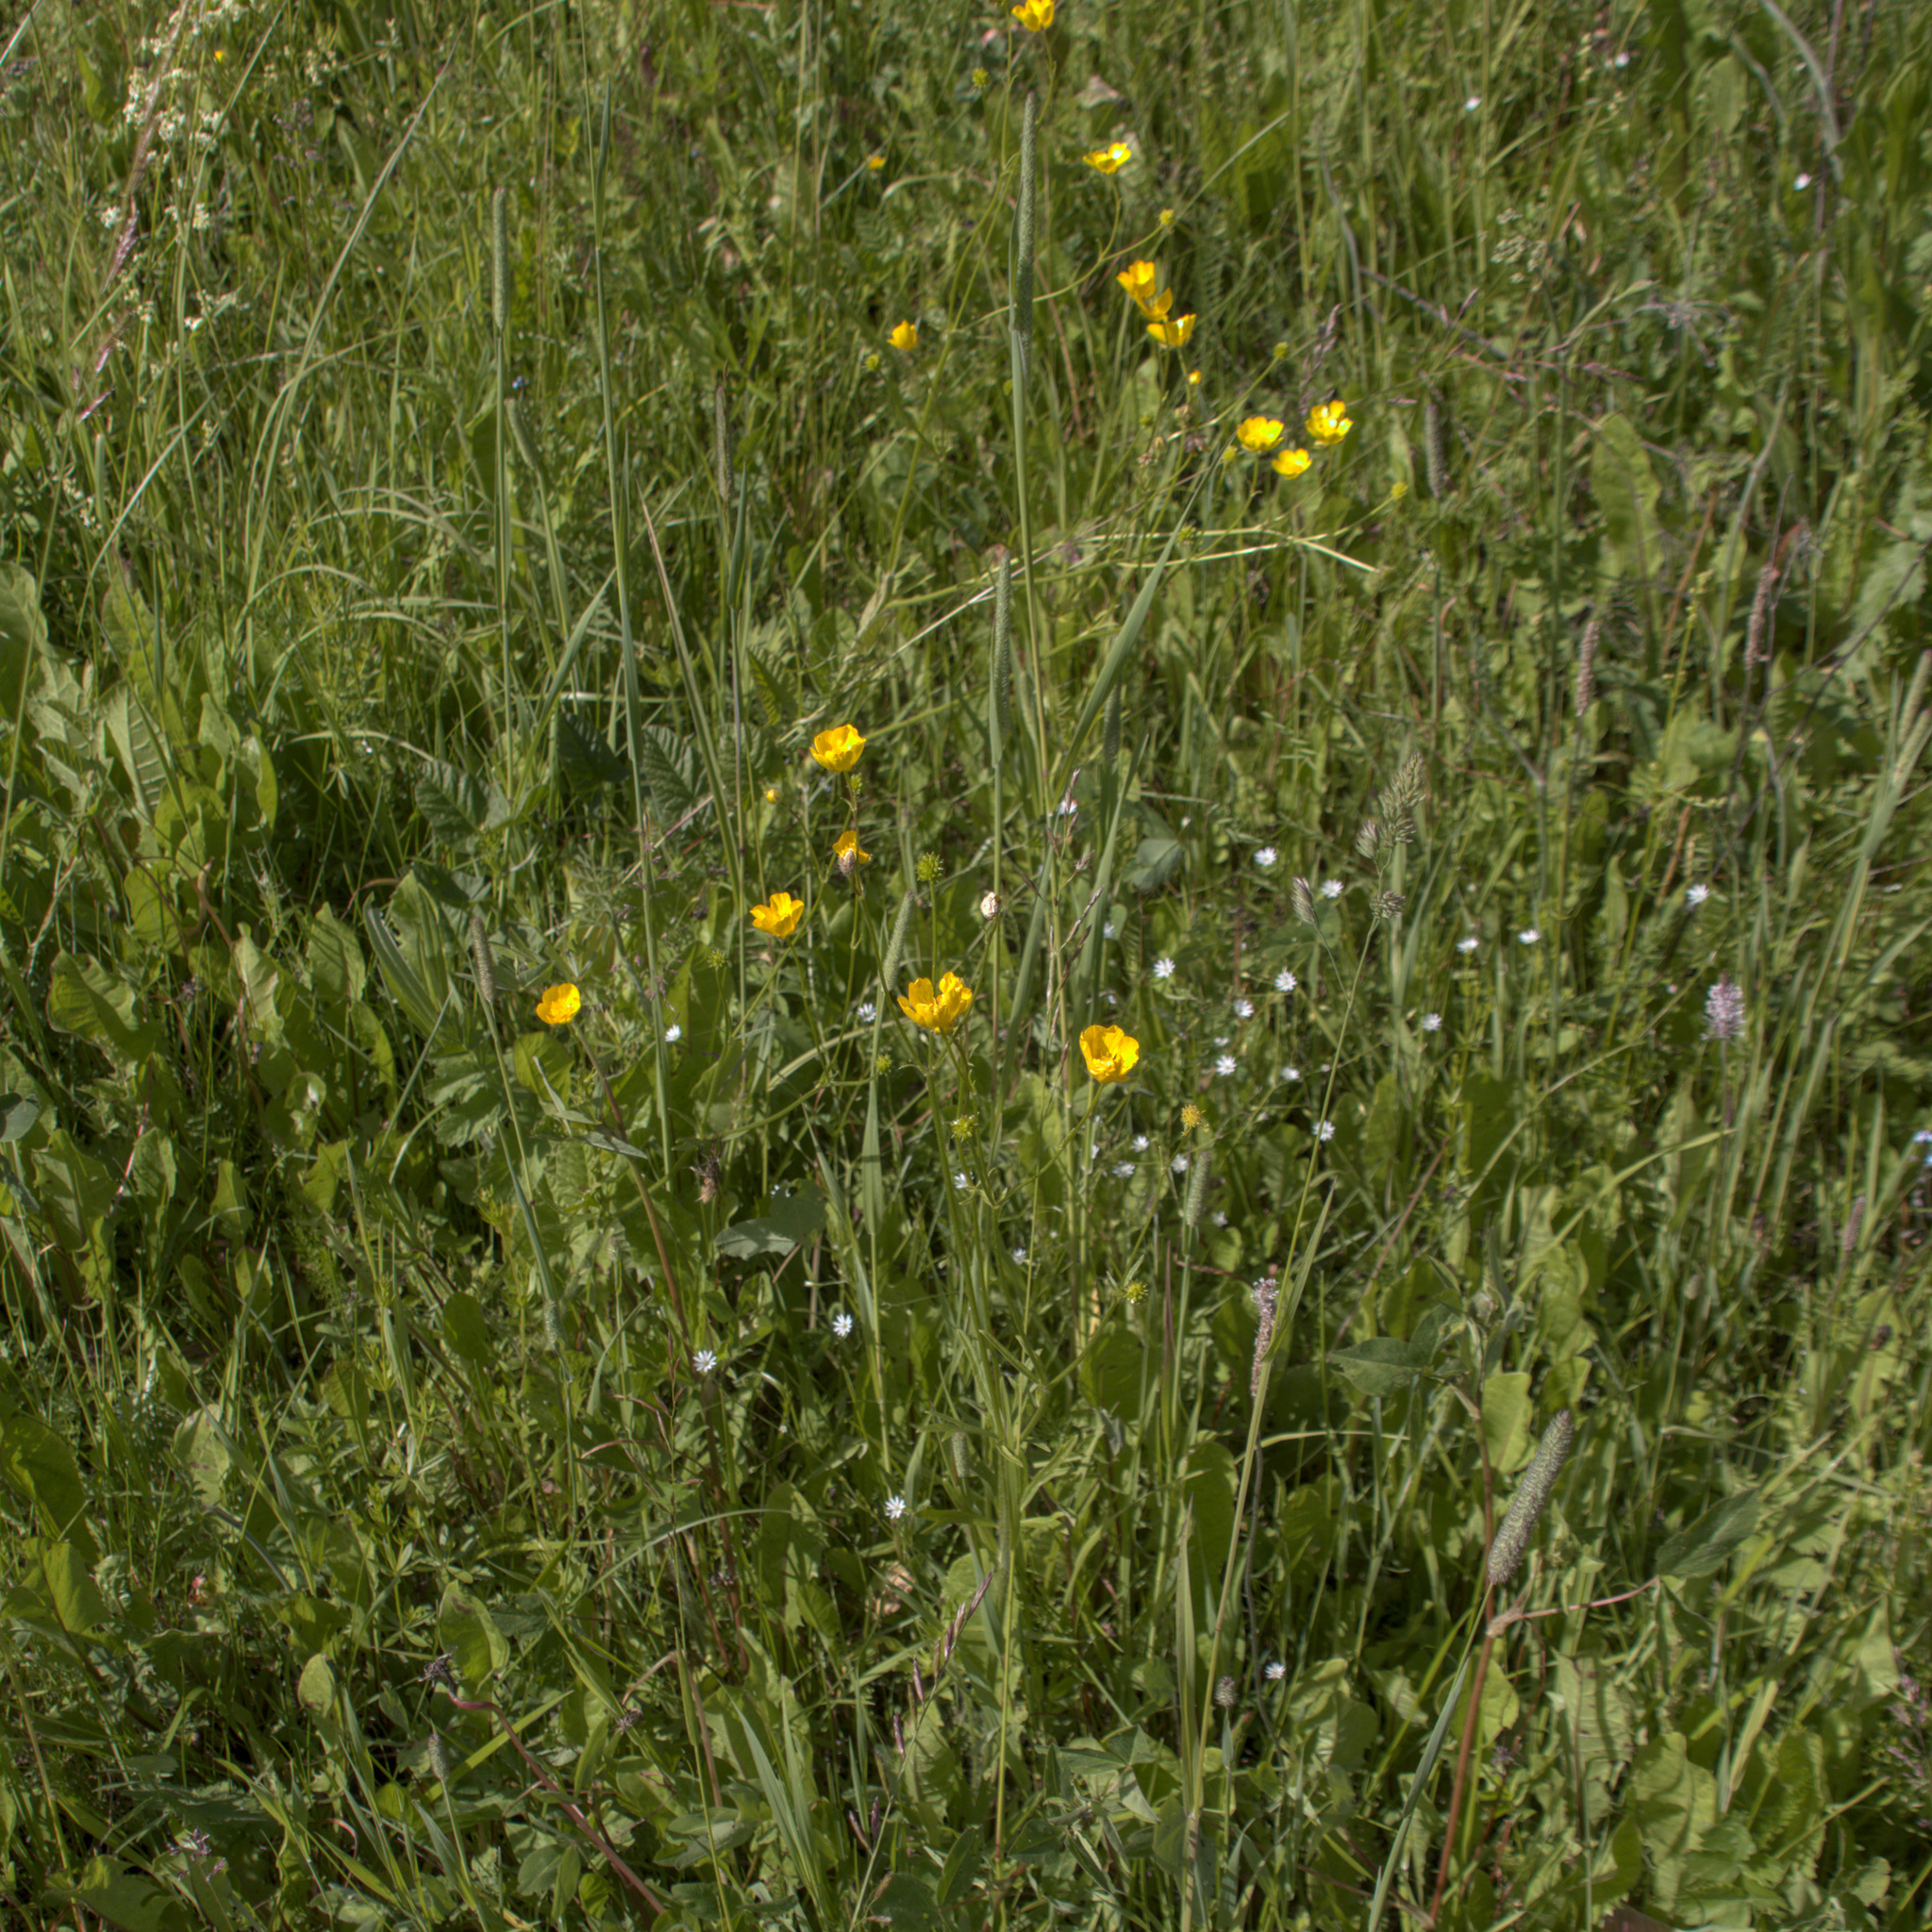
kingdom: Plantae
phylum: Tracheophyta
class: Magnoliopsida
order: Ranunculales
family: Ranunculaceae
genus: Ranunculus
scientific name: Ranunculus polyanthemos
